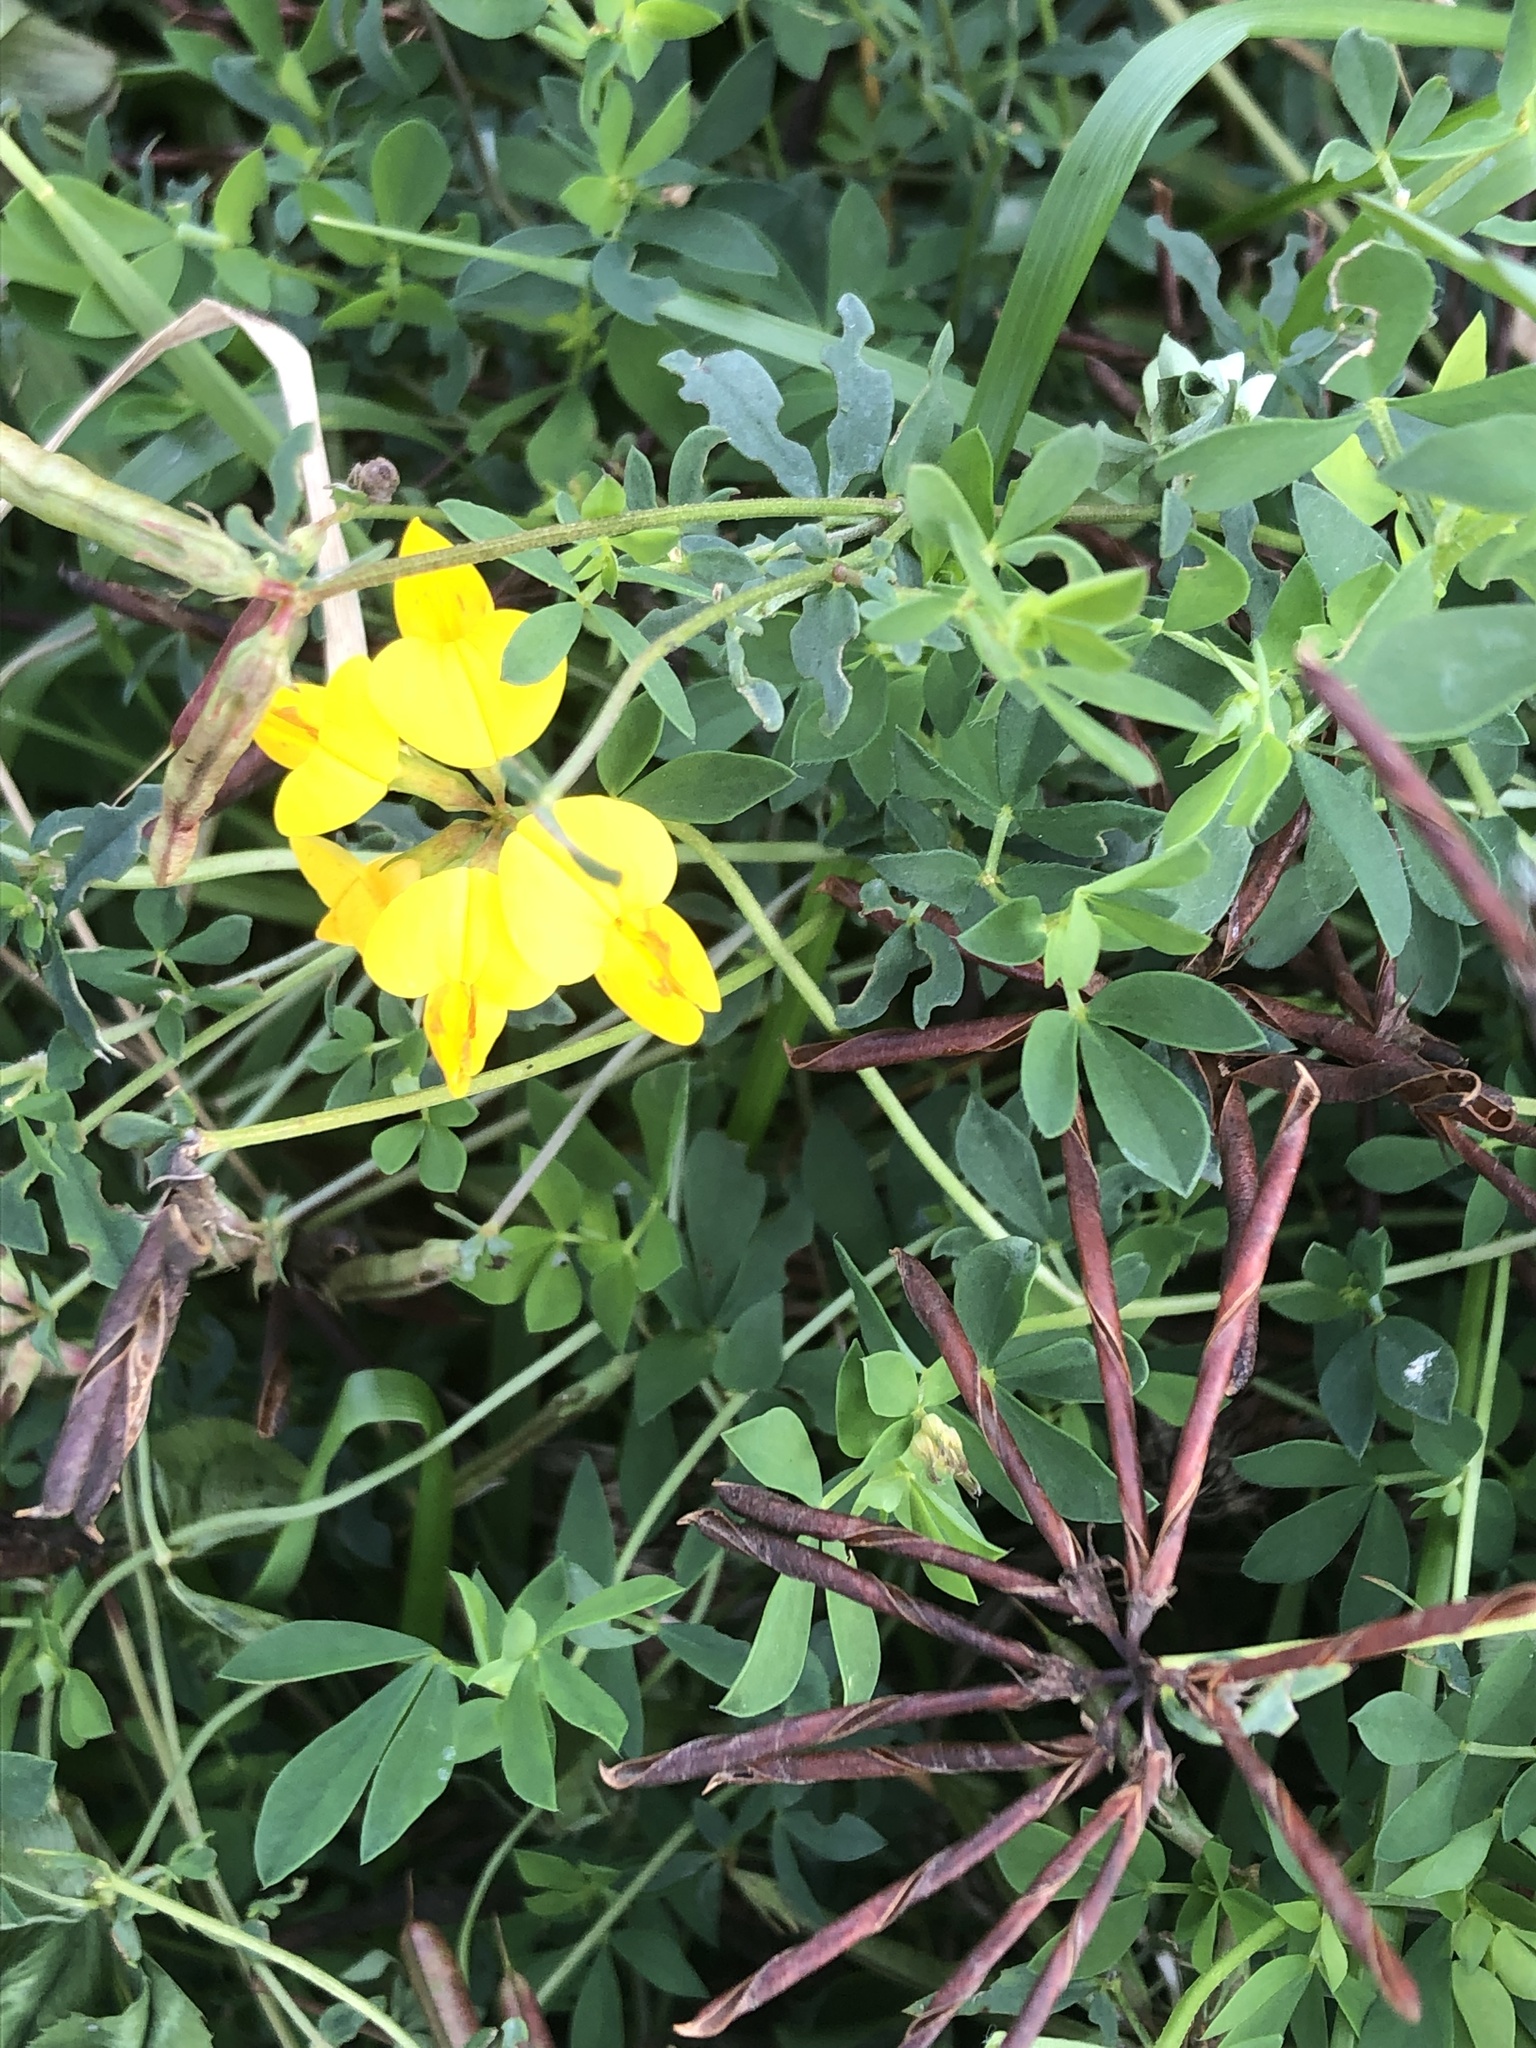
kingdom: Plantae
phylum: Tracheophyta
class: Magnoliopsida
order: Fabales
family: Fabaceae
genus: Lotus
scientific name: Lotus corniculatus
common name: Common bird's-foot-trefoil
